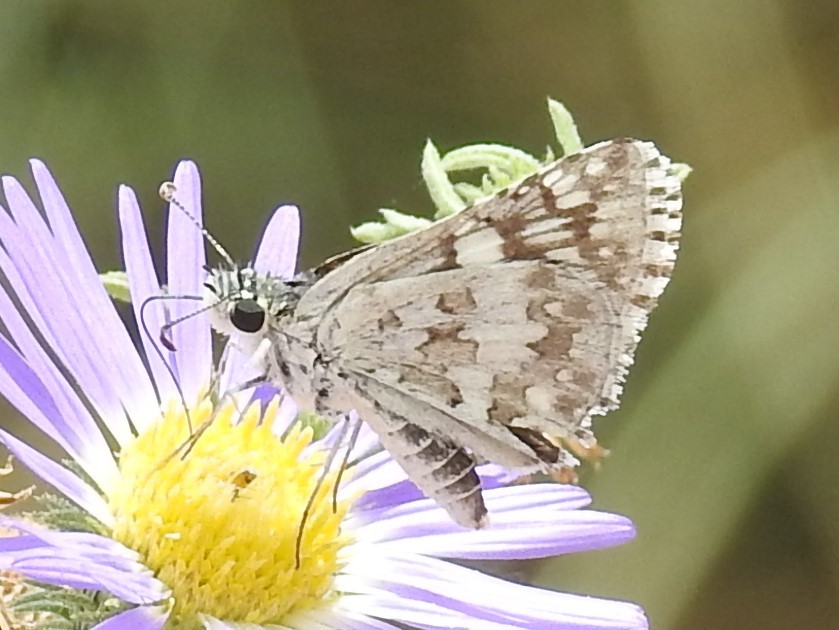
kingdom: Animalia
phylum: Arthropoda
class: Insecta
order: Lepidoptera
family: Hesperiidae
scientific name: Hesperiidae
